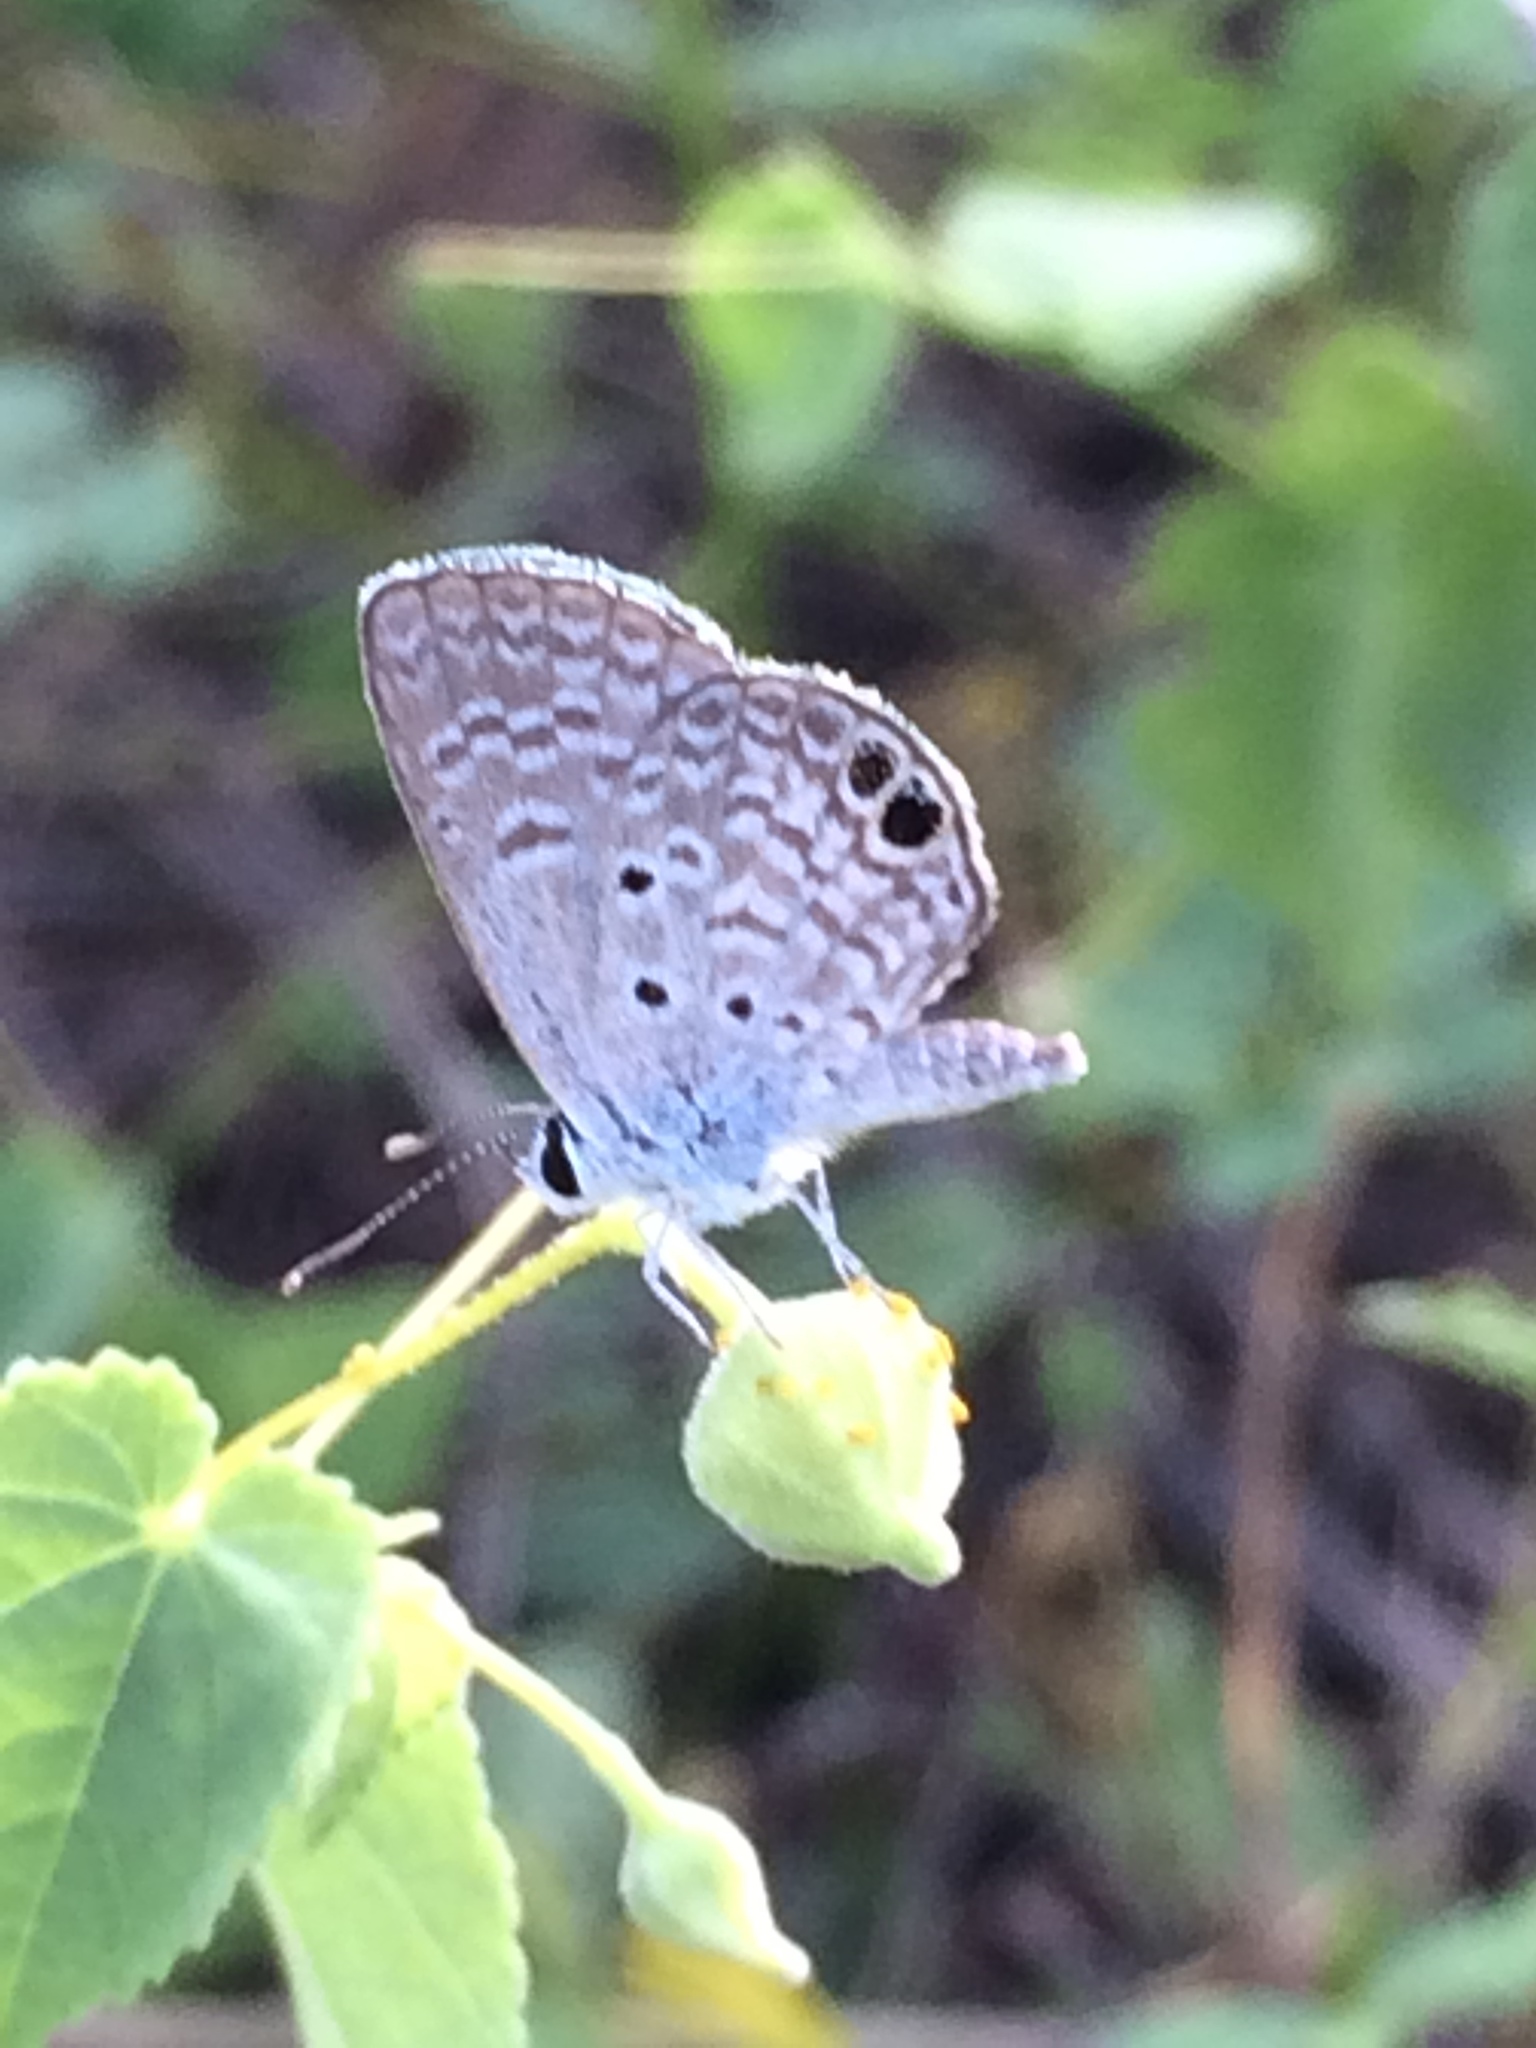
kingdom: Animalia
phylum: Arthropoda
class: Insecta
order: Lepidoptera
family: Lycaenidae
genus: Hemiargus
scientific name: Hemiargus ceraunus
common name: Ceraunus blue
